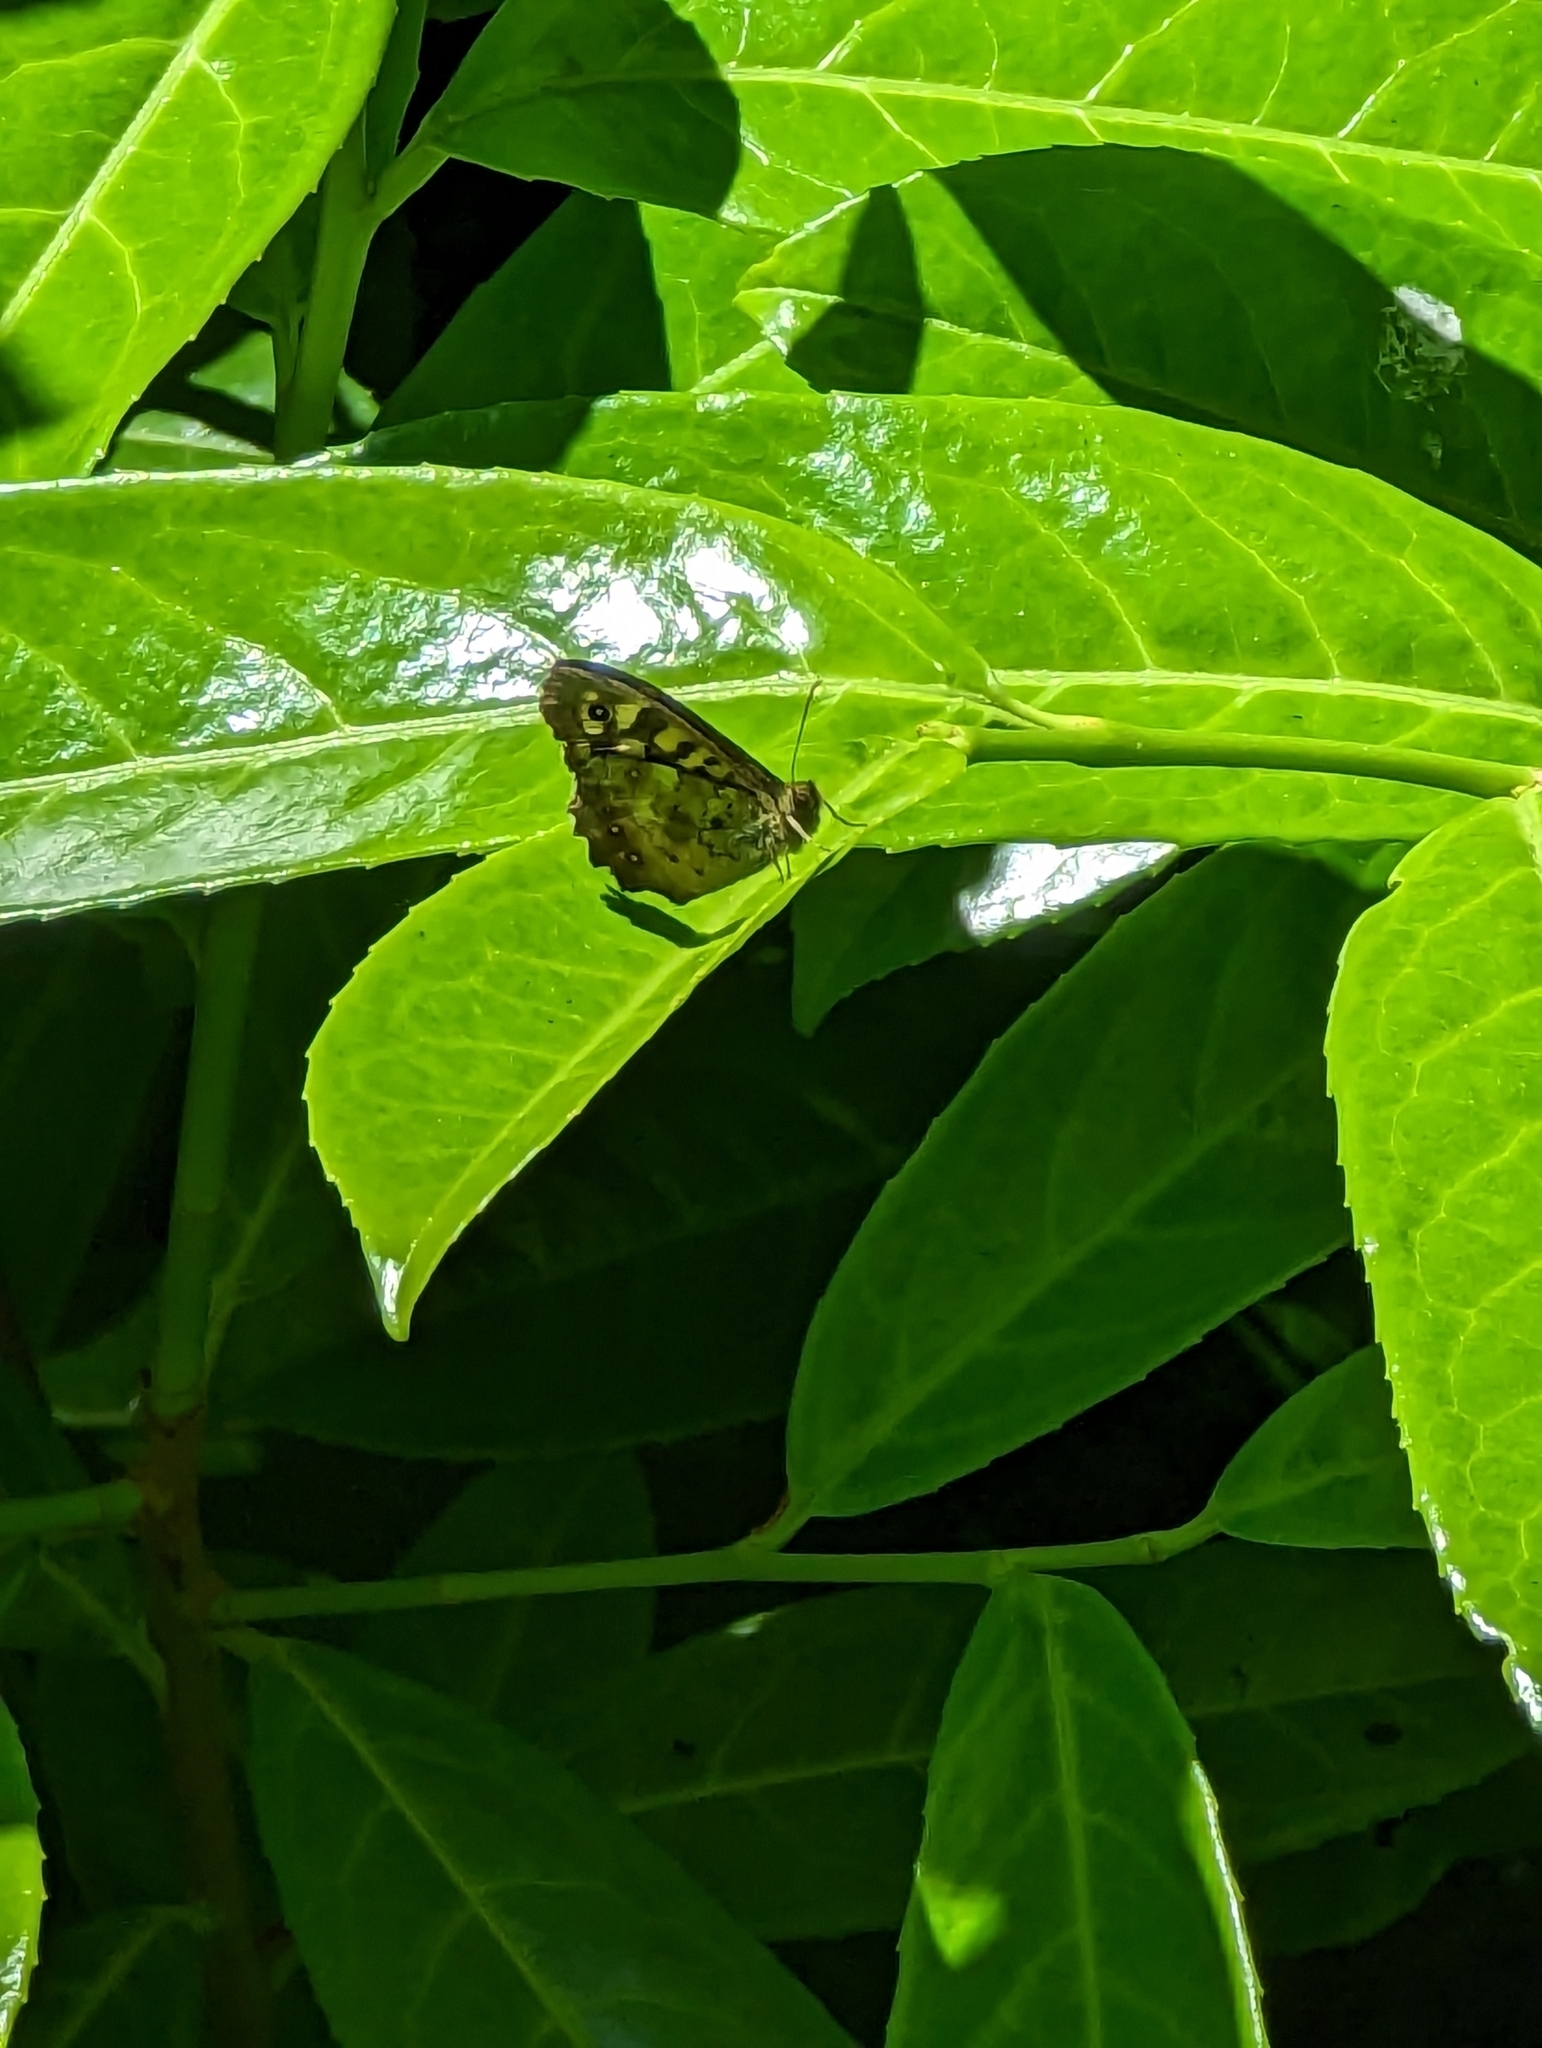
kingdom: Animalia
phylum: Arthropoda
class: Insecta
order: Lepidoptera
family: Nymphalidae
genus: Pararge
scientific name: Pararge aegeria
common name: Speckled wood
